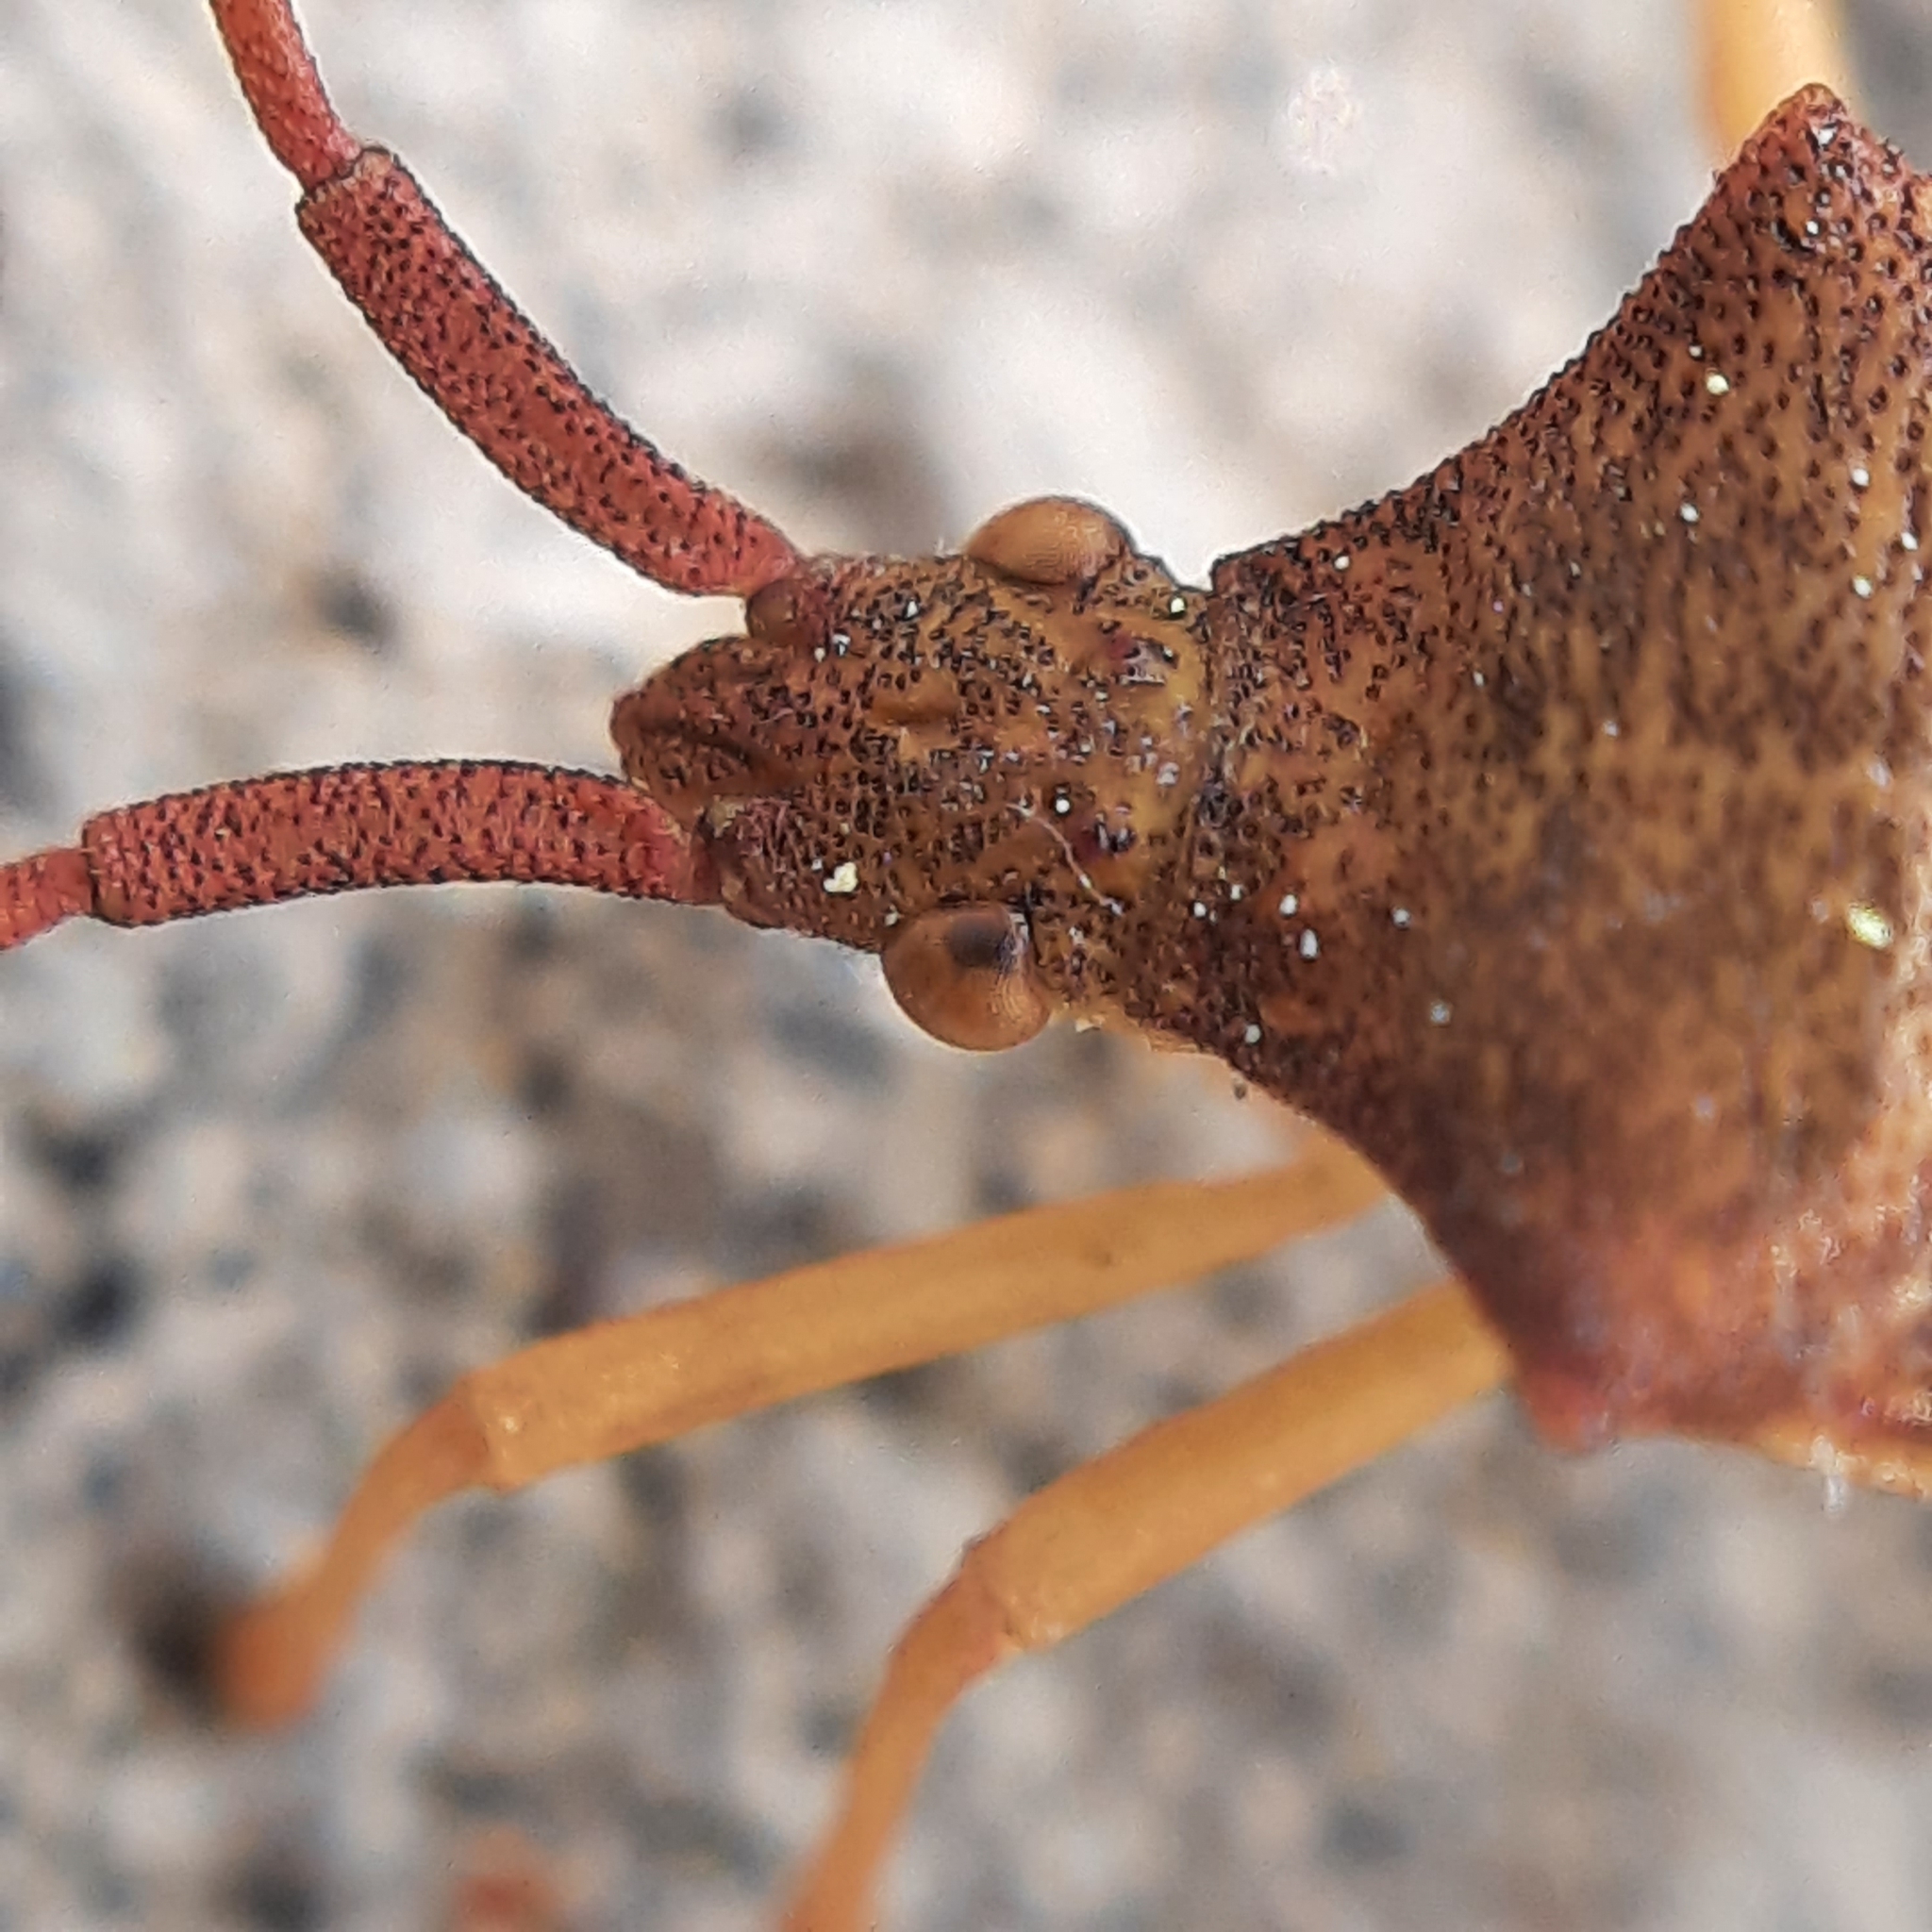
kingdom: Animalia
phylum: Arthropoda
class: Insecta
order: Hemiptera
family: Coreidae
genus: Gonocerus
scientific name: Gonocerus acuteangulatus
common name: Box bug
